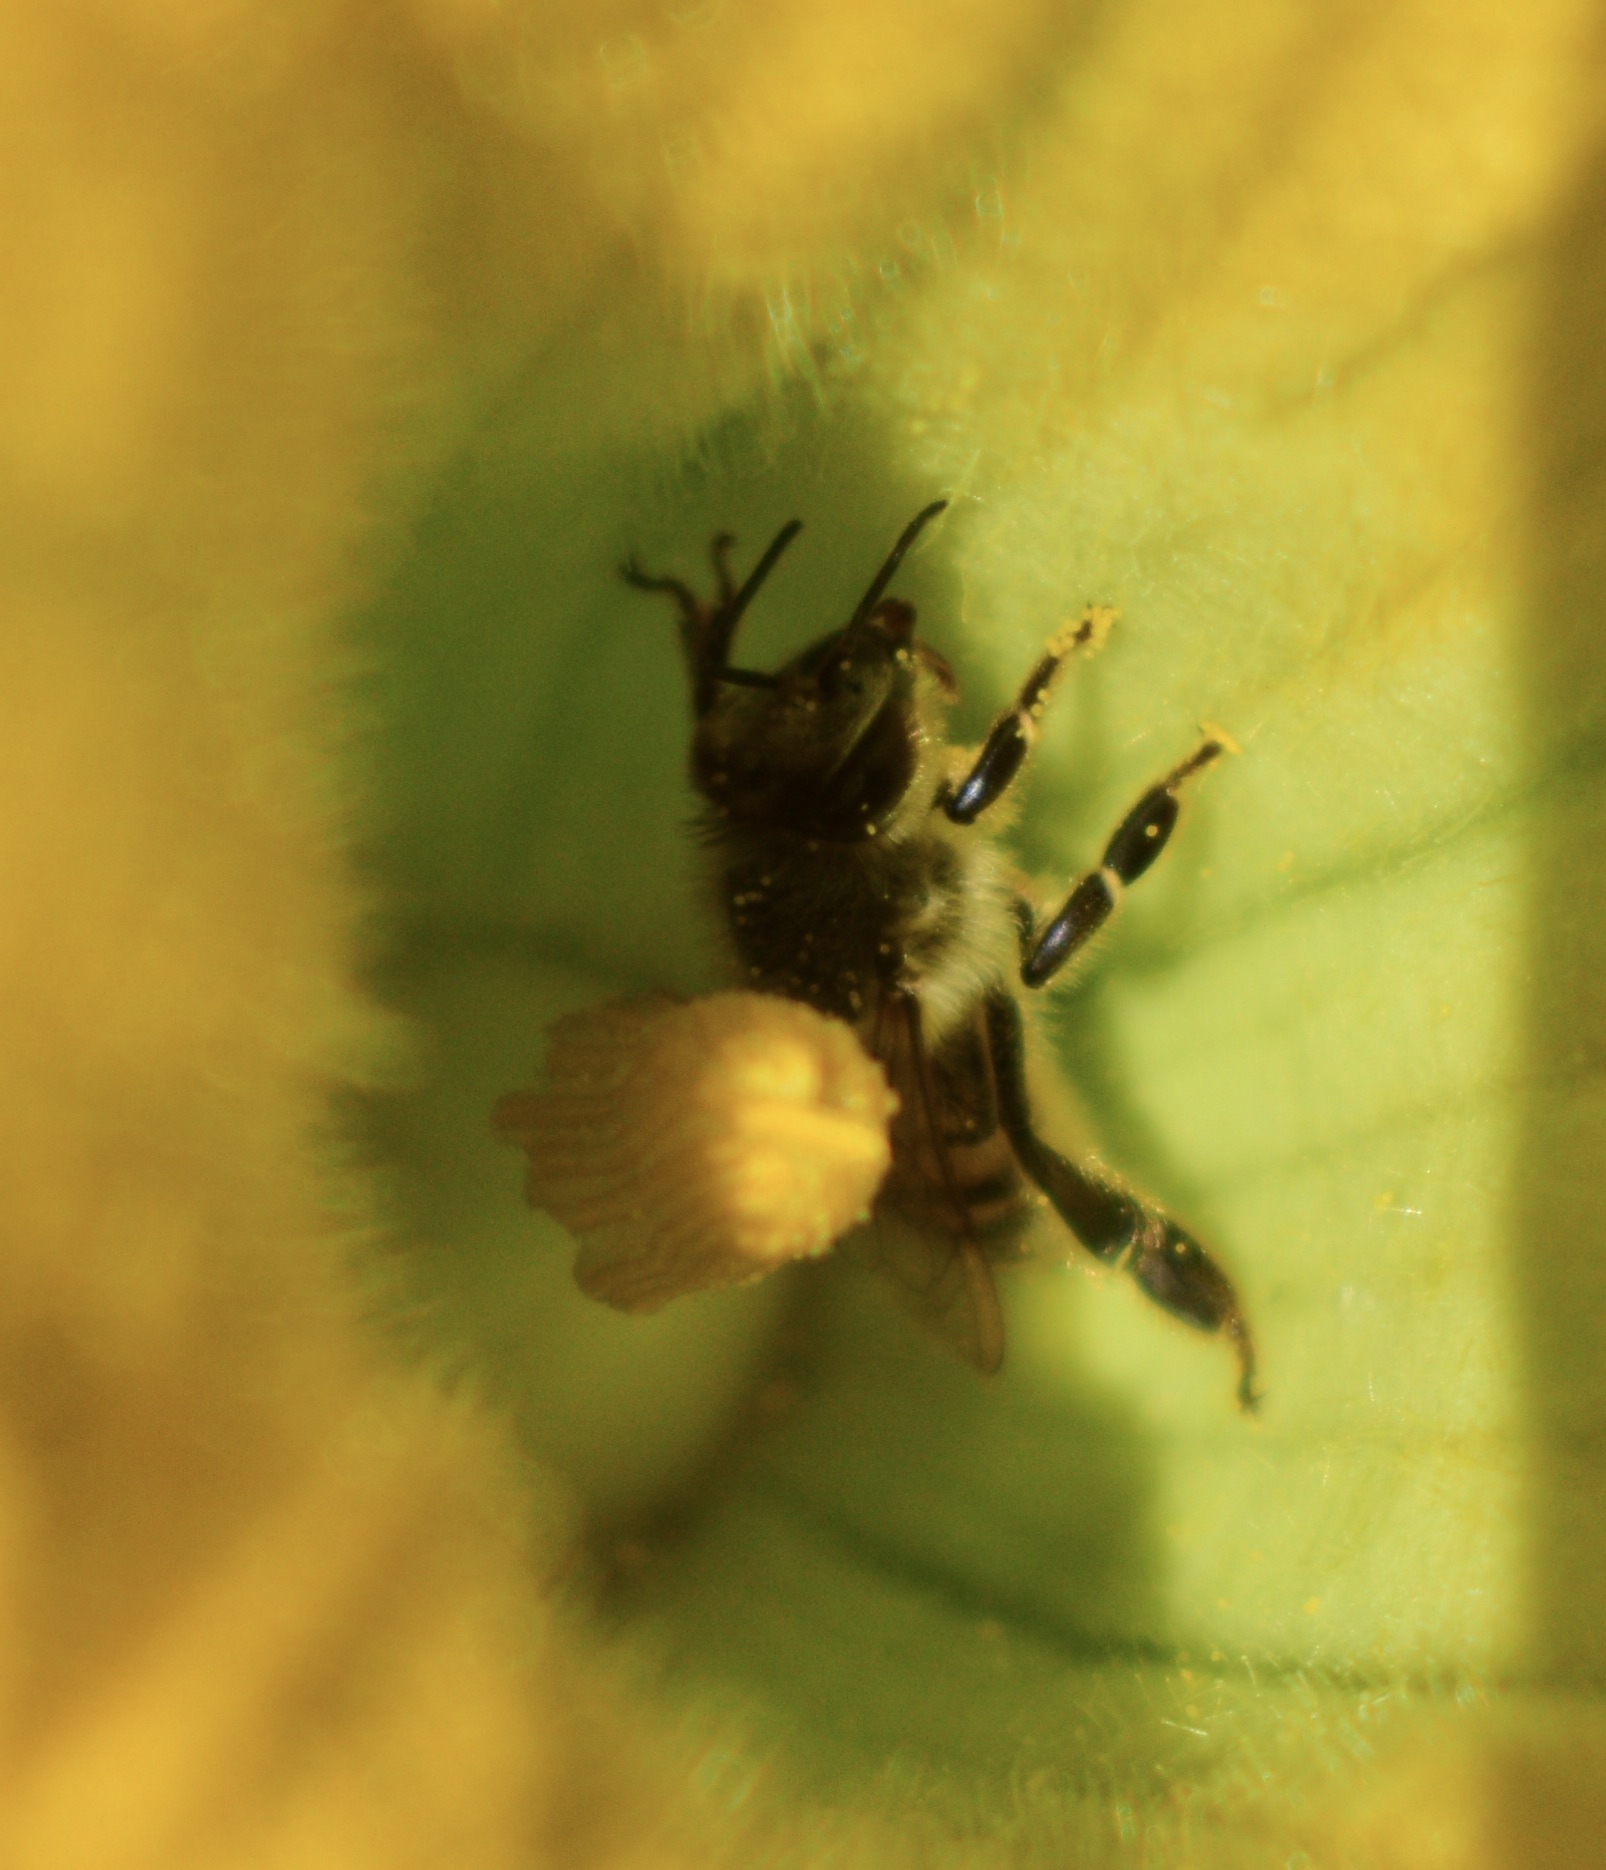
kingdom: Animalia
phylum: Arthropoda
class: Insecta
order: Hymenoptera
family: Apidae
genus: Apis
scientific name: Apis mellifera
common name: Honey bee
